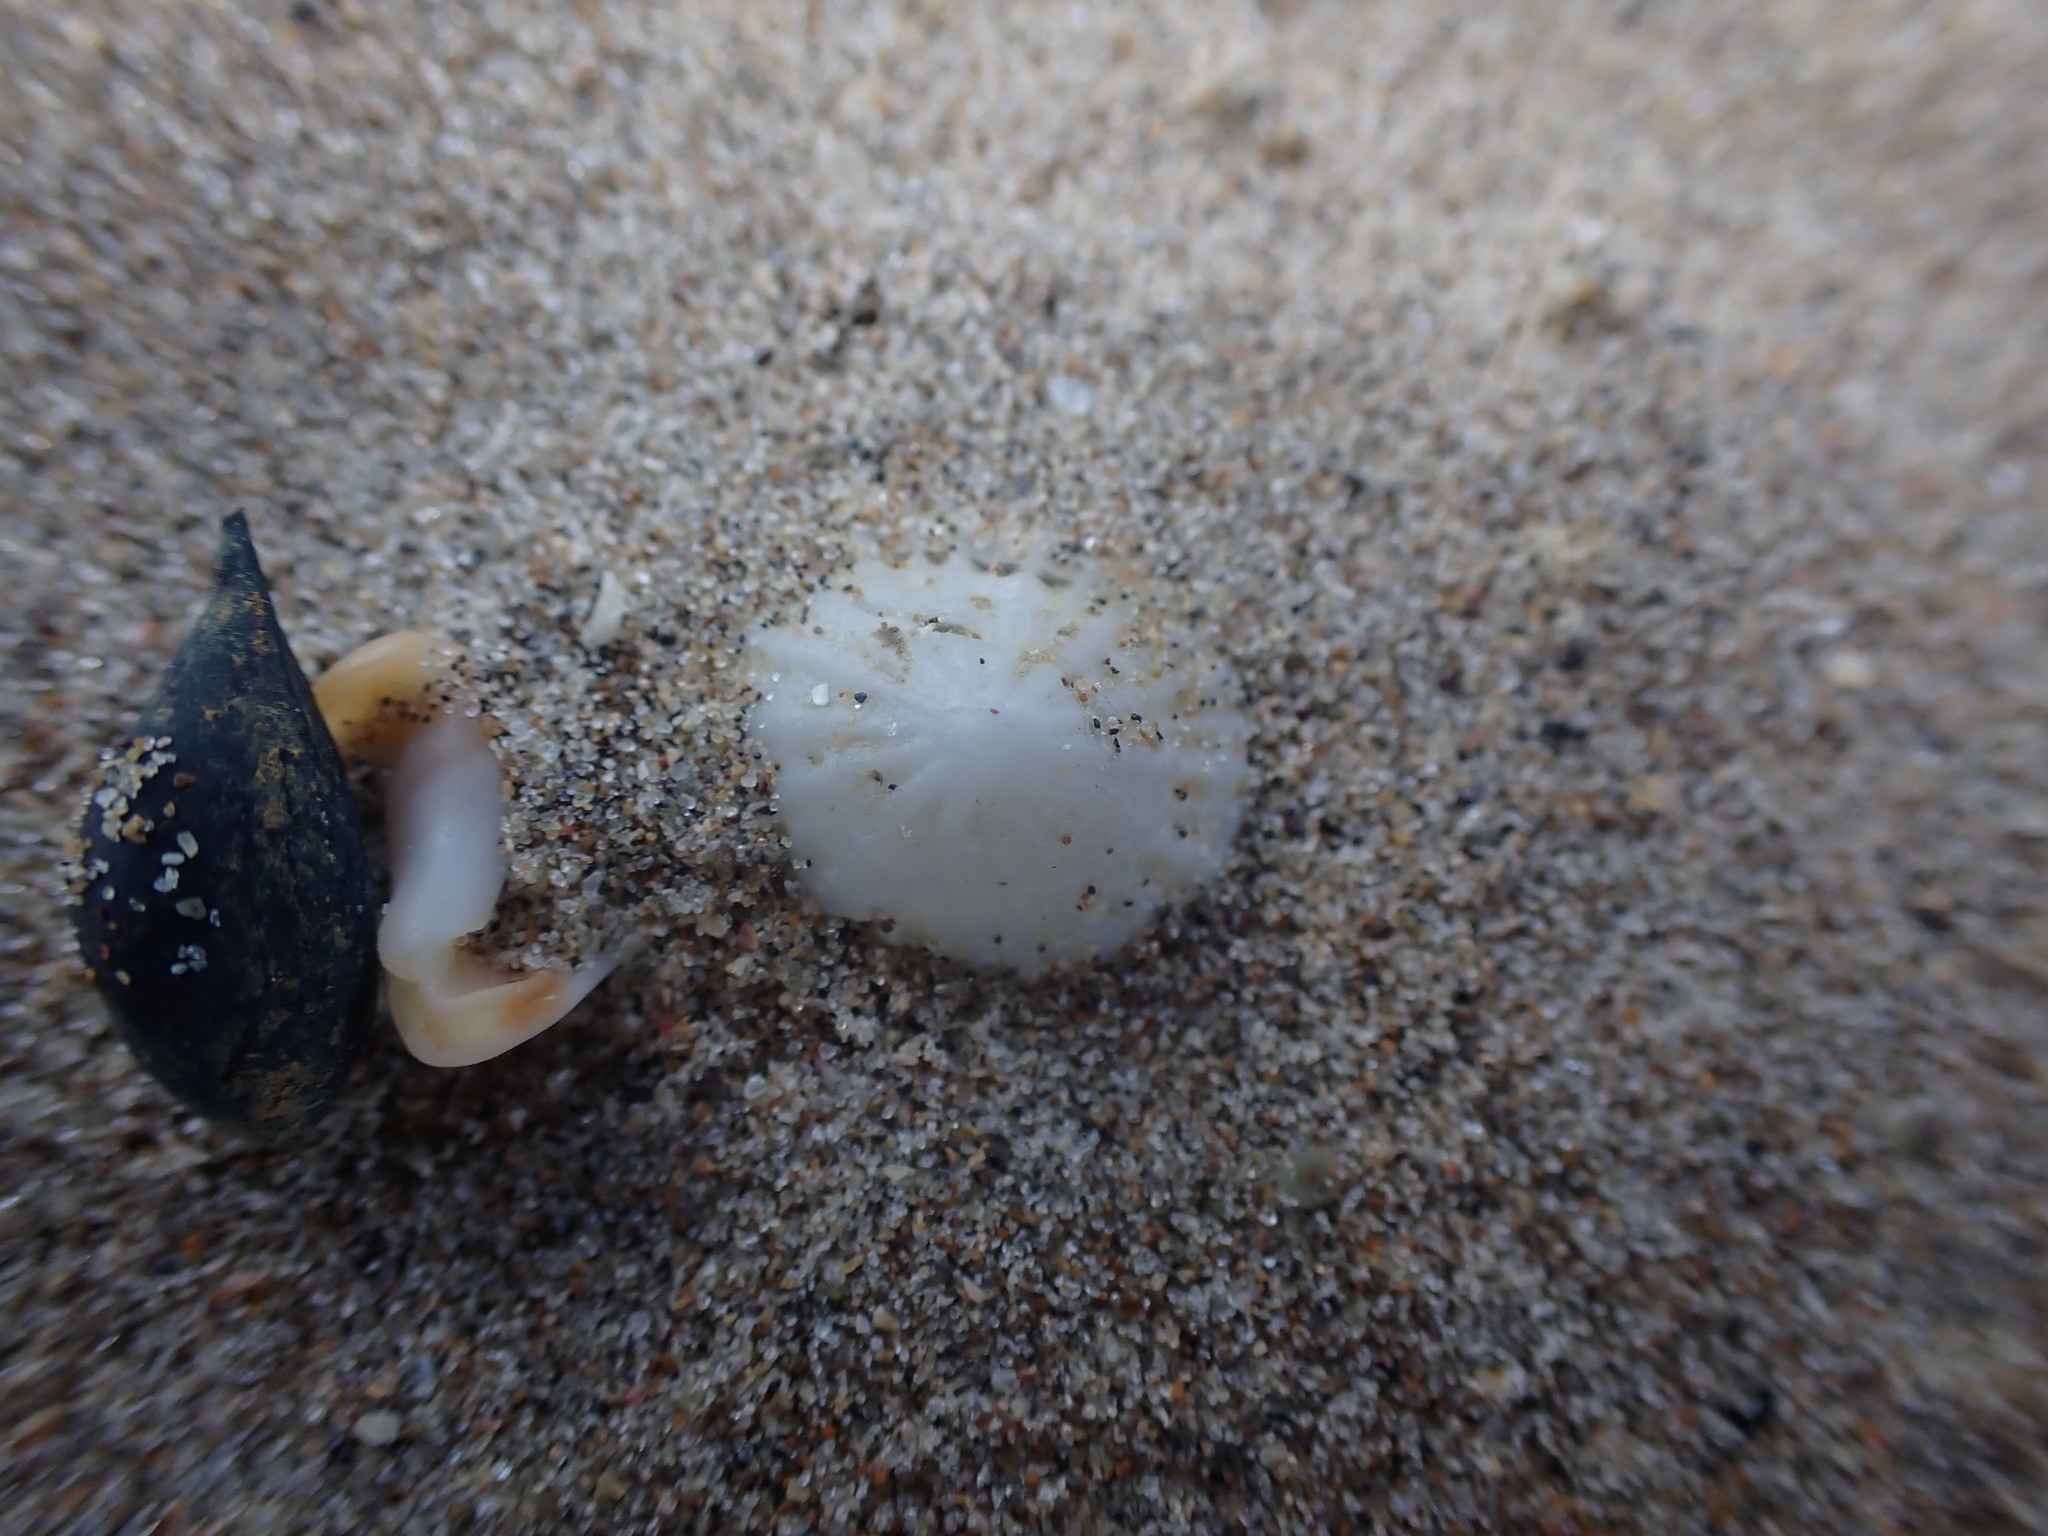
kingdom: Animalia
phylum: Mollusca
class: Gastropoda
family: Lottiidae
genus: Radiacmea
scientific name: Radiacmea inconspicua
